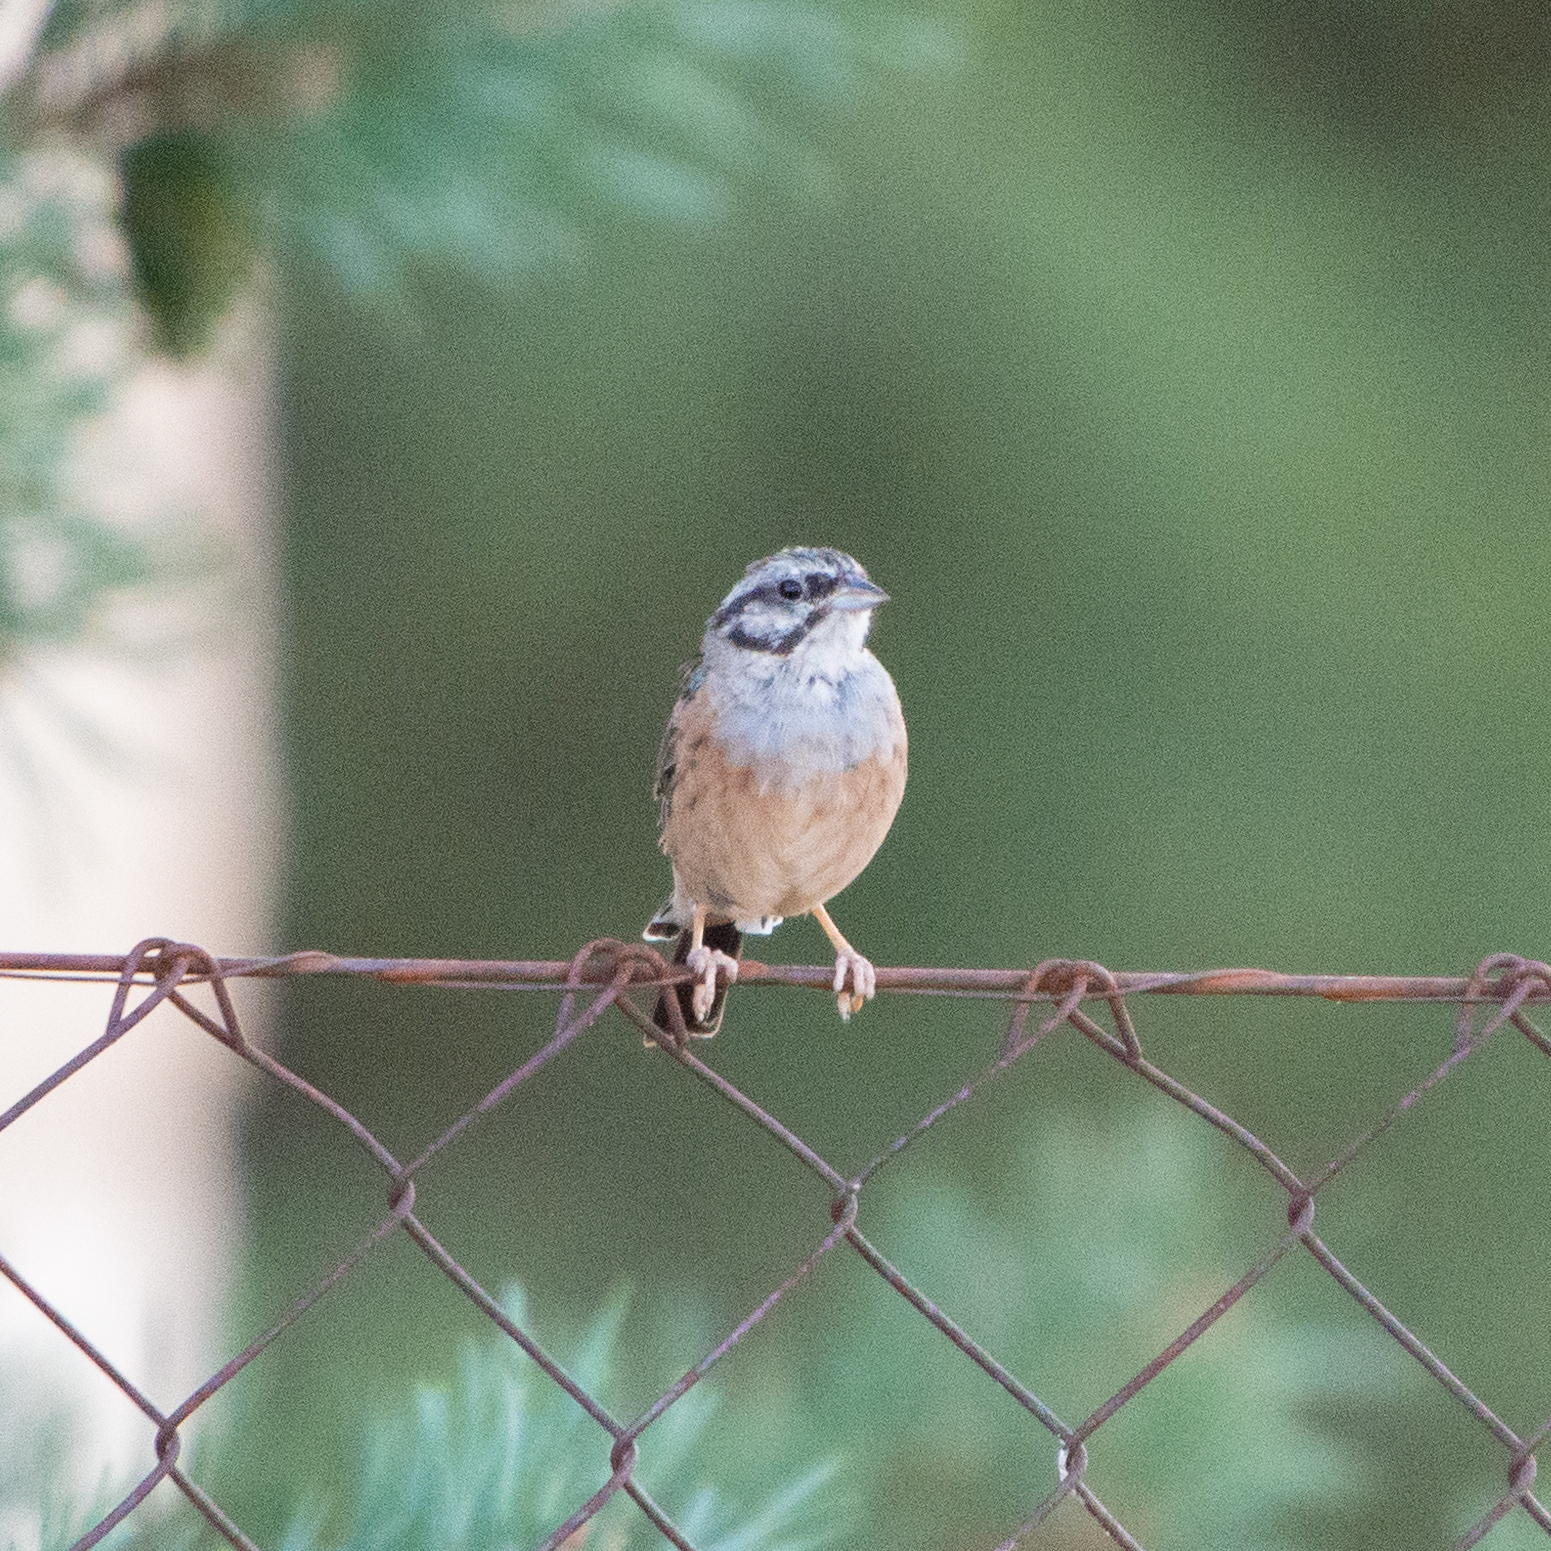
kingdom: Animalia
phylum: Chordata
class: Aves
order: Passeriformes
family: Emberizidae
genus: Emberiza
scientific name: Emberiza cia
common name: Rock bunting
